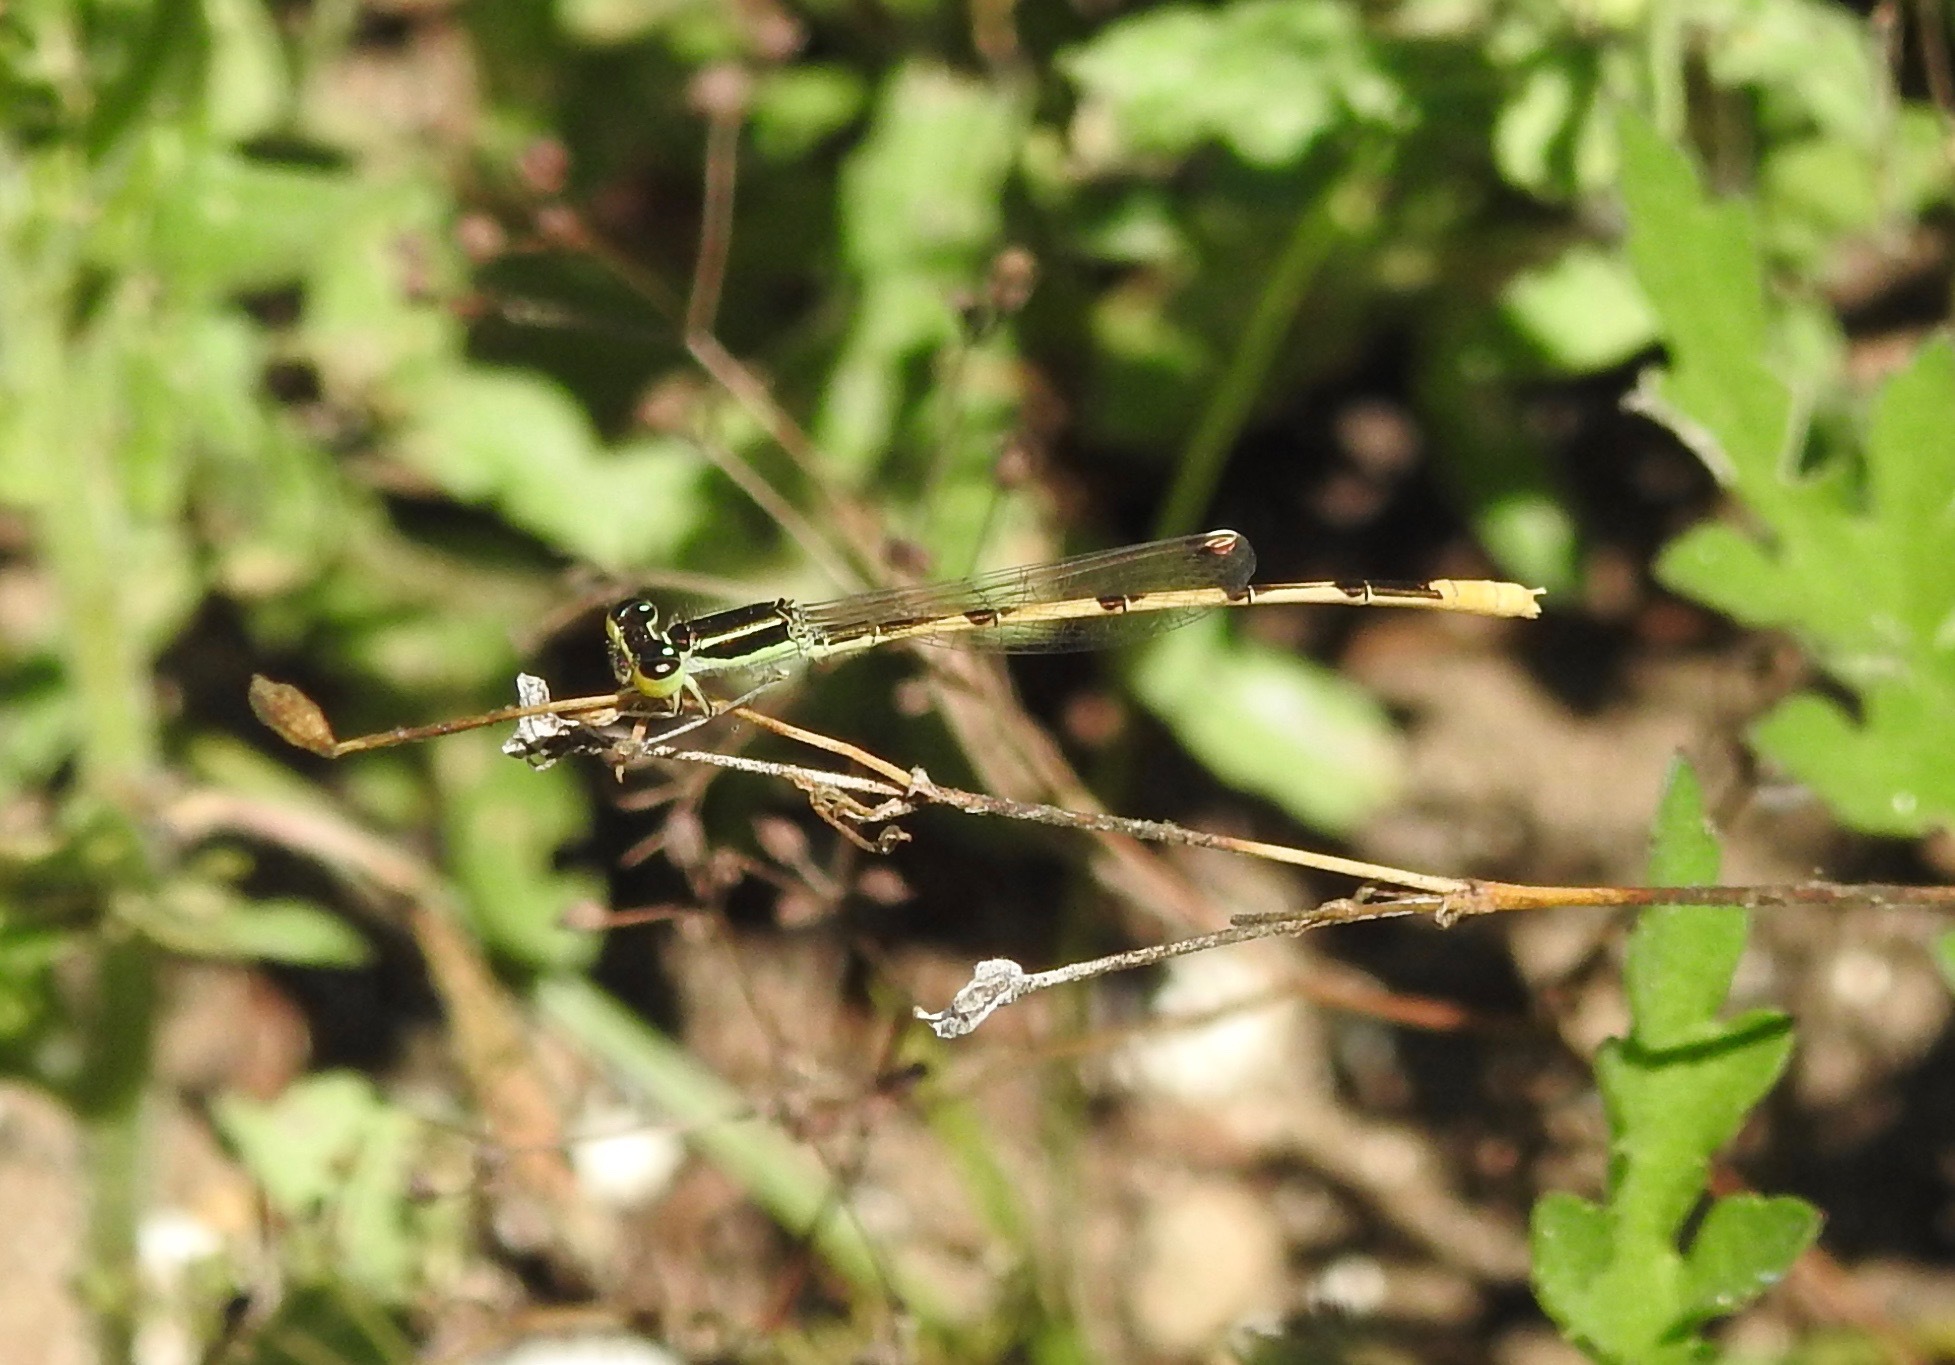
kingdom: Animalia
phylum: Arthropoda
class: Insecta
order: Odonata
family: Coenagrionidae
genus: Ischnura
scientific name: Ischnura hastata
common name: Citrine forktail
